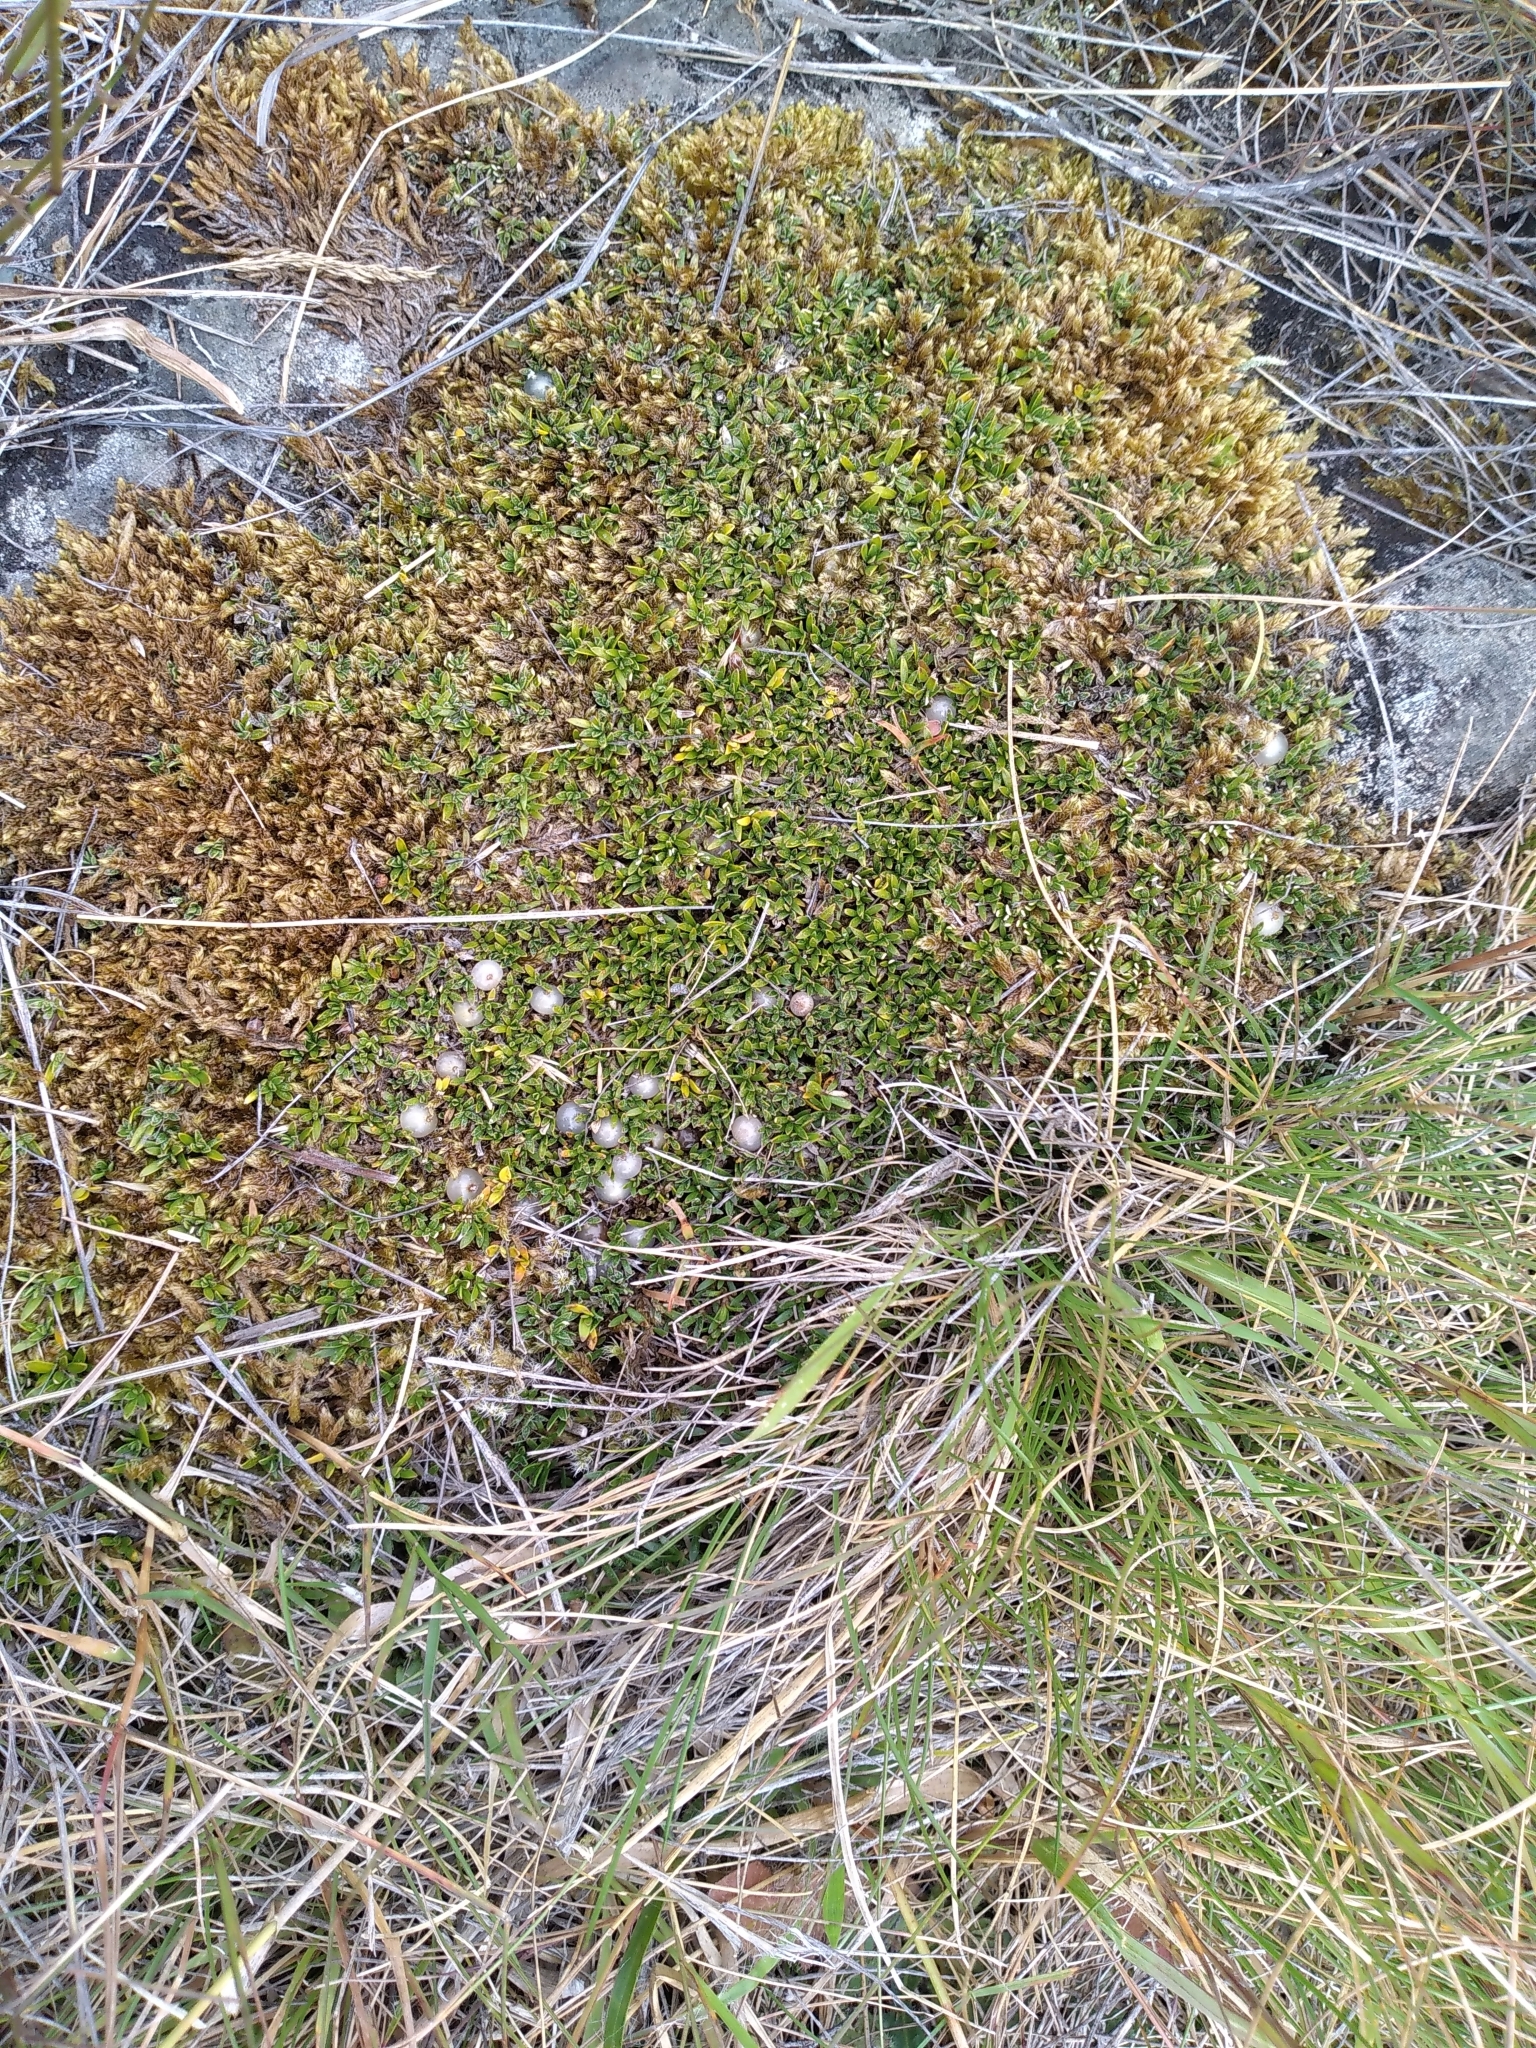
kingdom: Plantae
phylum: Tracheophyta
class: Magnoliopsida
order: Gentianales
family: Rubiaceae
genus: Coprosma
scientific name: Coprosma petriei
